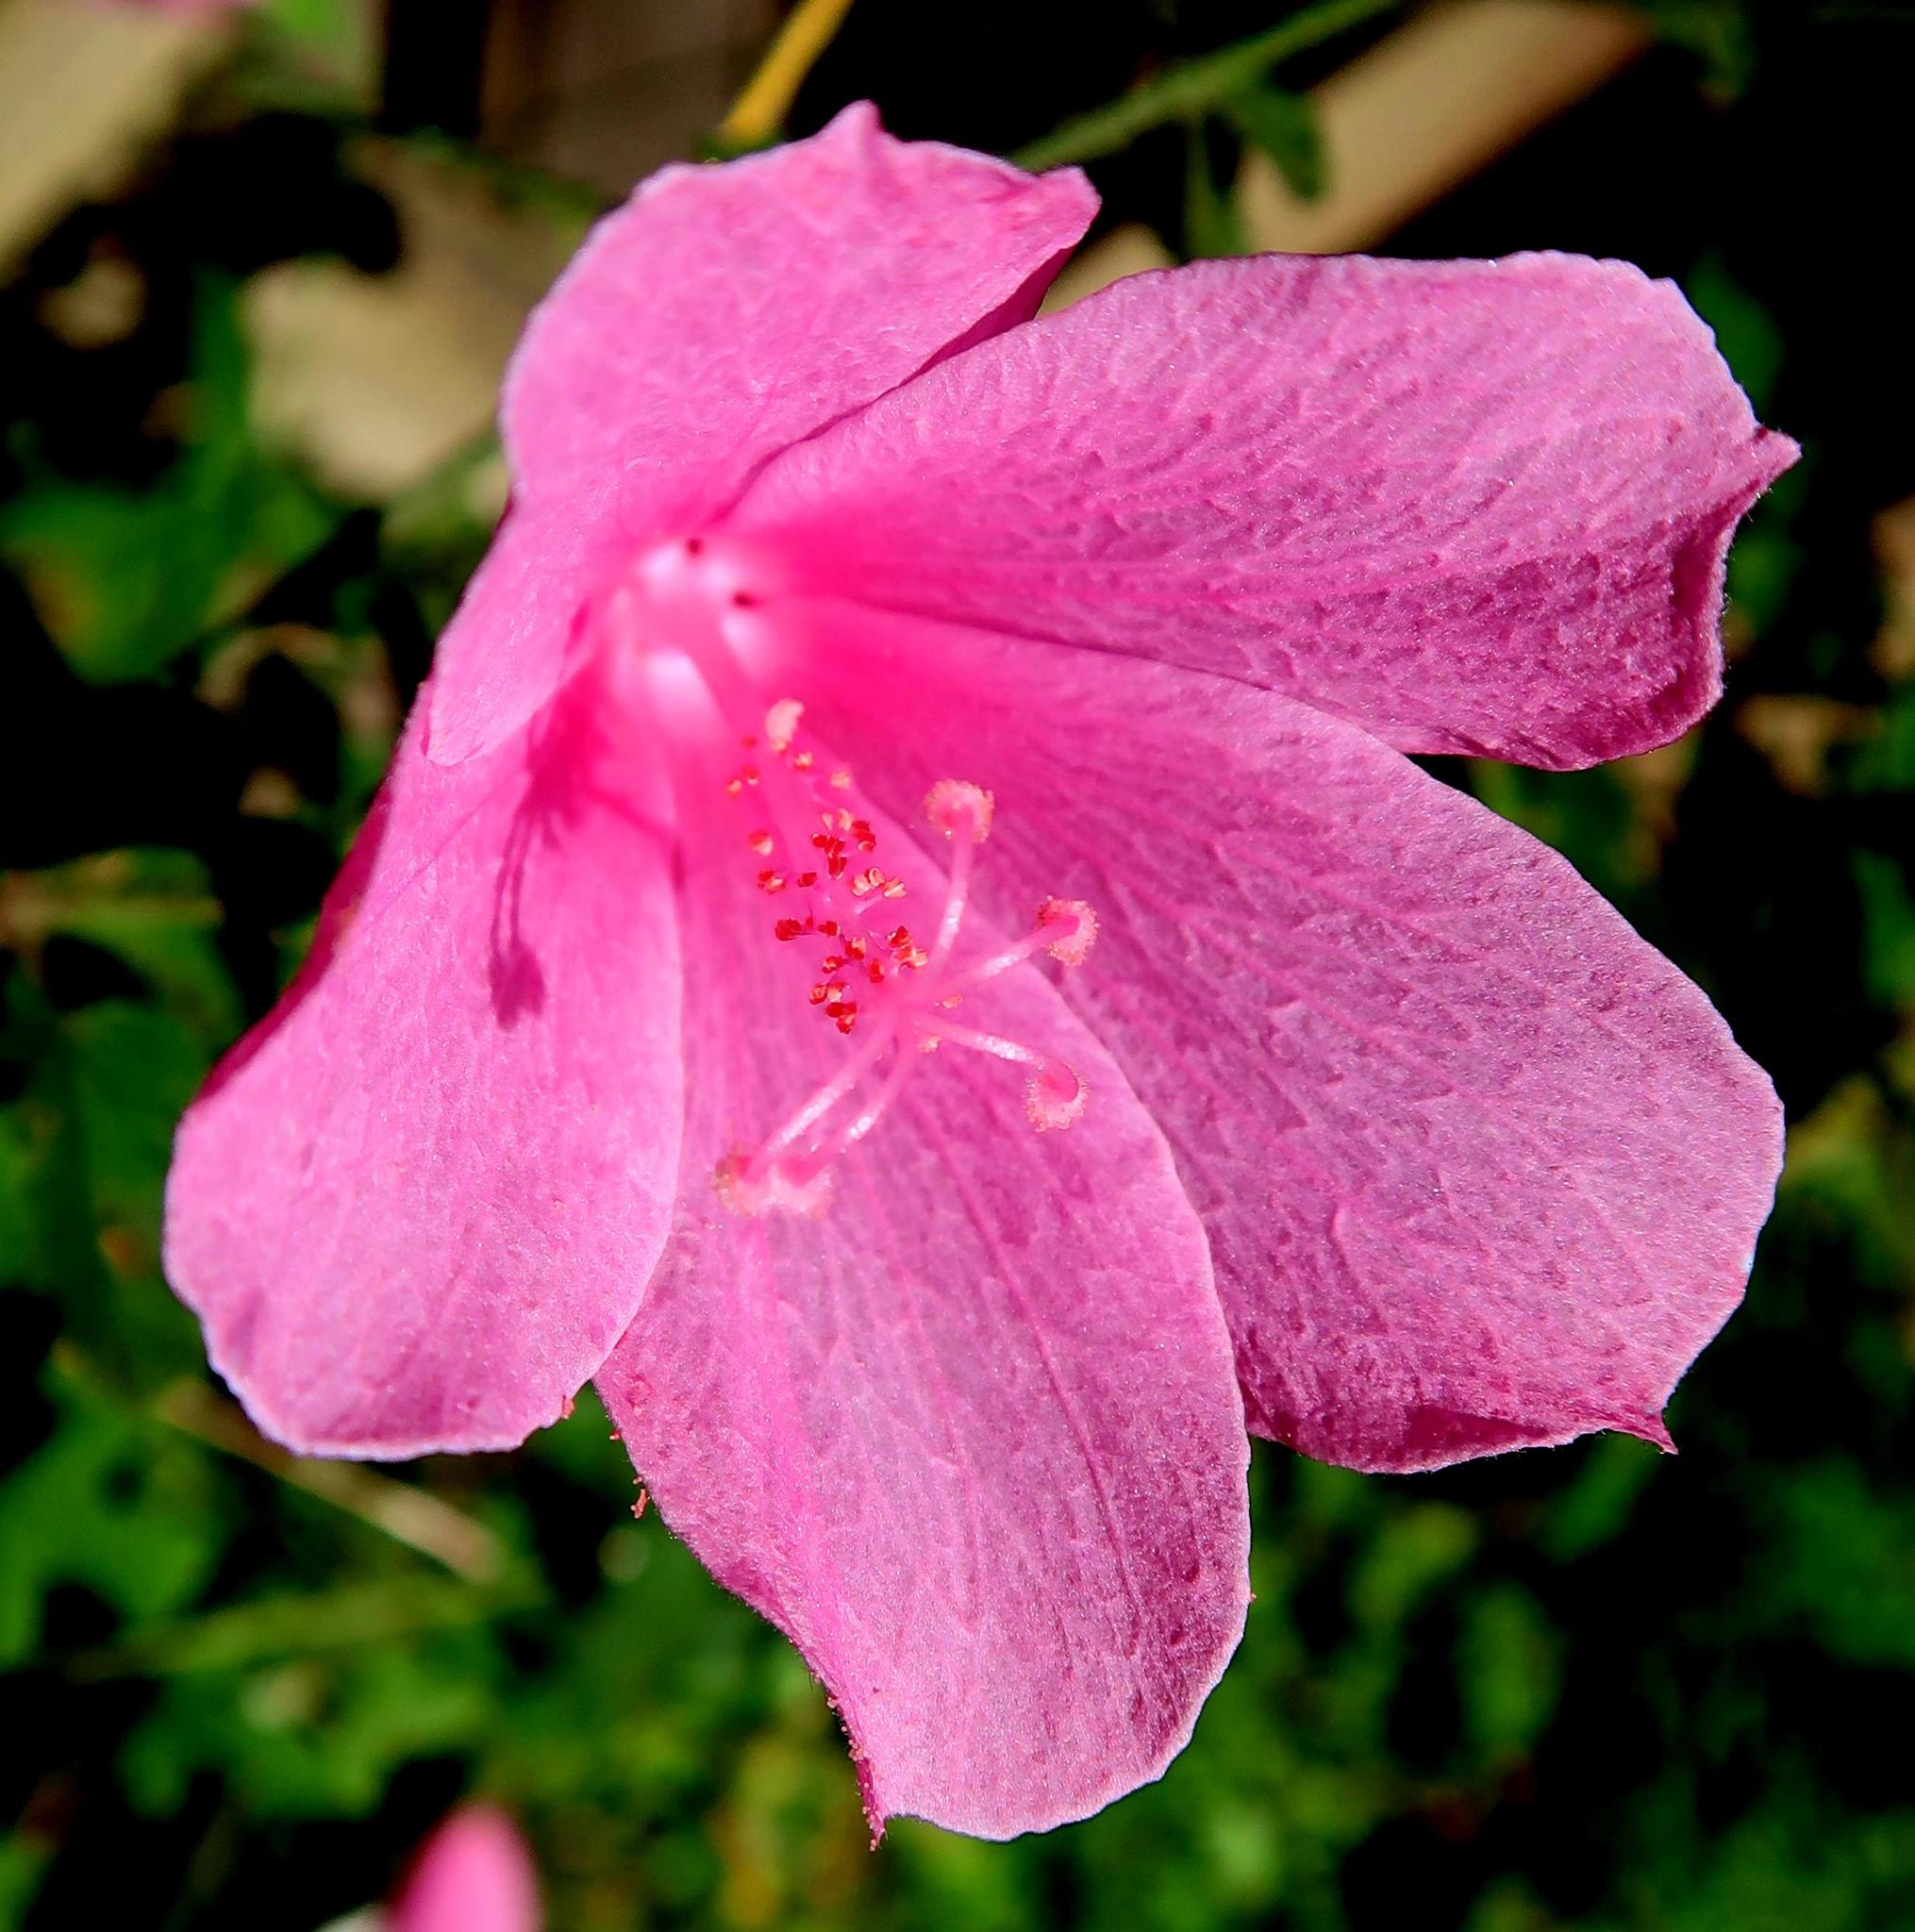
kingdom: Plantae
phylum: Tracheophyta
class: Magnoliopsida
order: Malvales
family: Malvaceae
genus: Hibiscus
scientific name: Hibiscus pedunculatus
